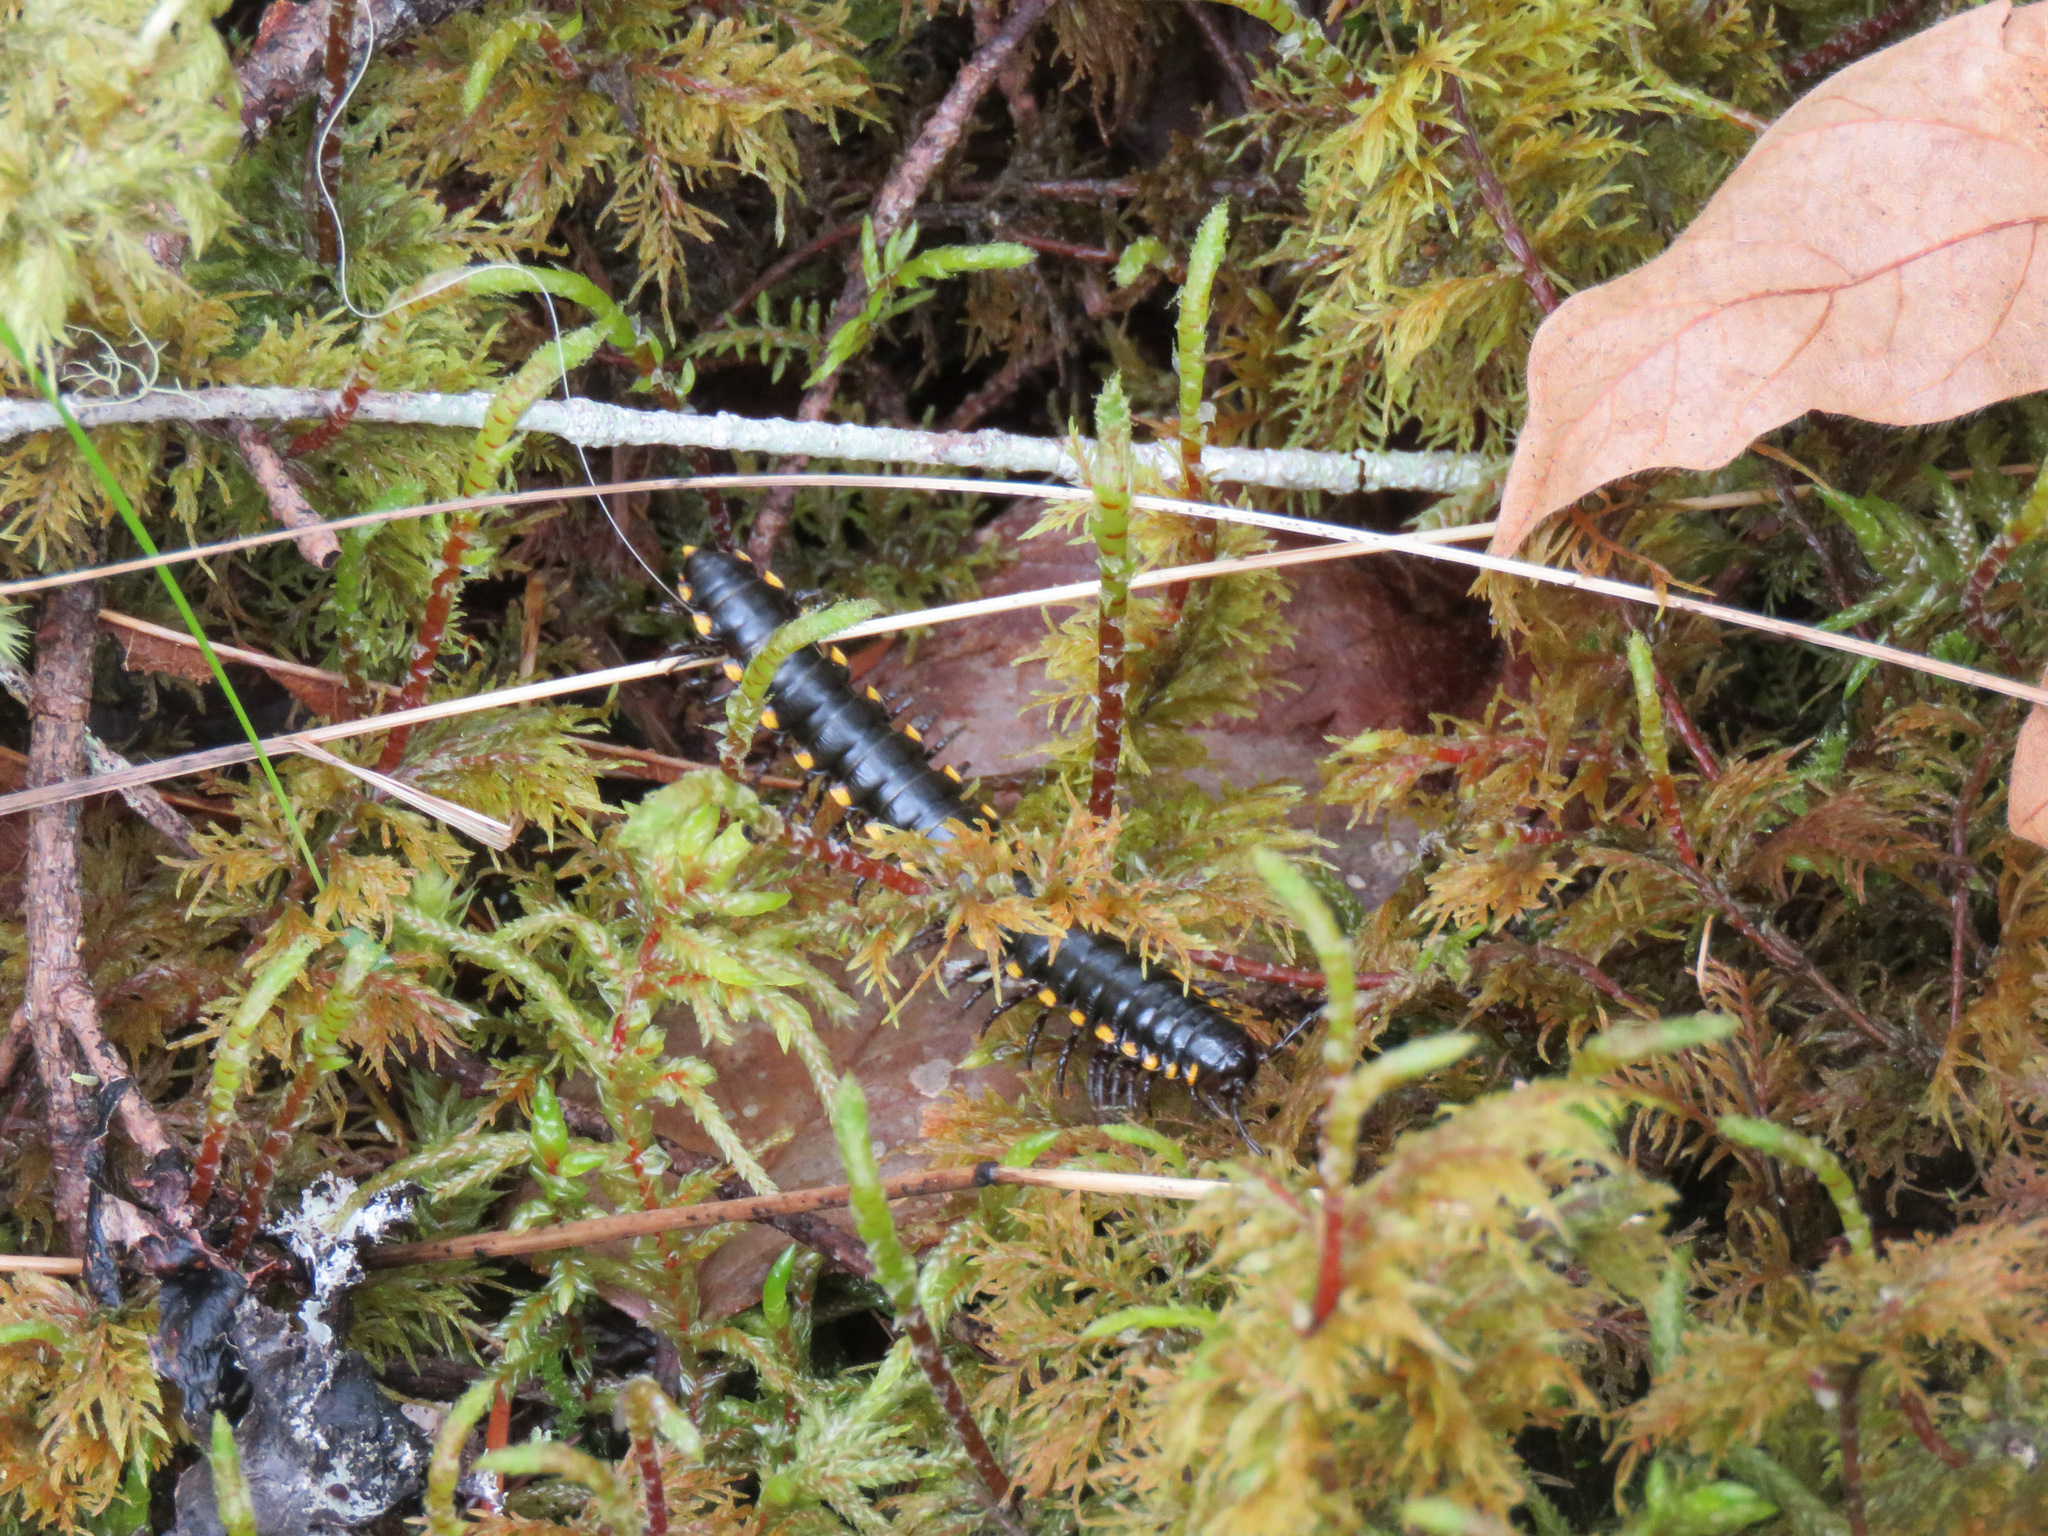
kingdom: Animalia
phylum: Arthropoda
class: Diplopoda
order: Polydesmida
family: Xystodesmidae
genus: Harpaphe
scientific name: Harpaphe haydeniana
